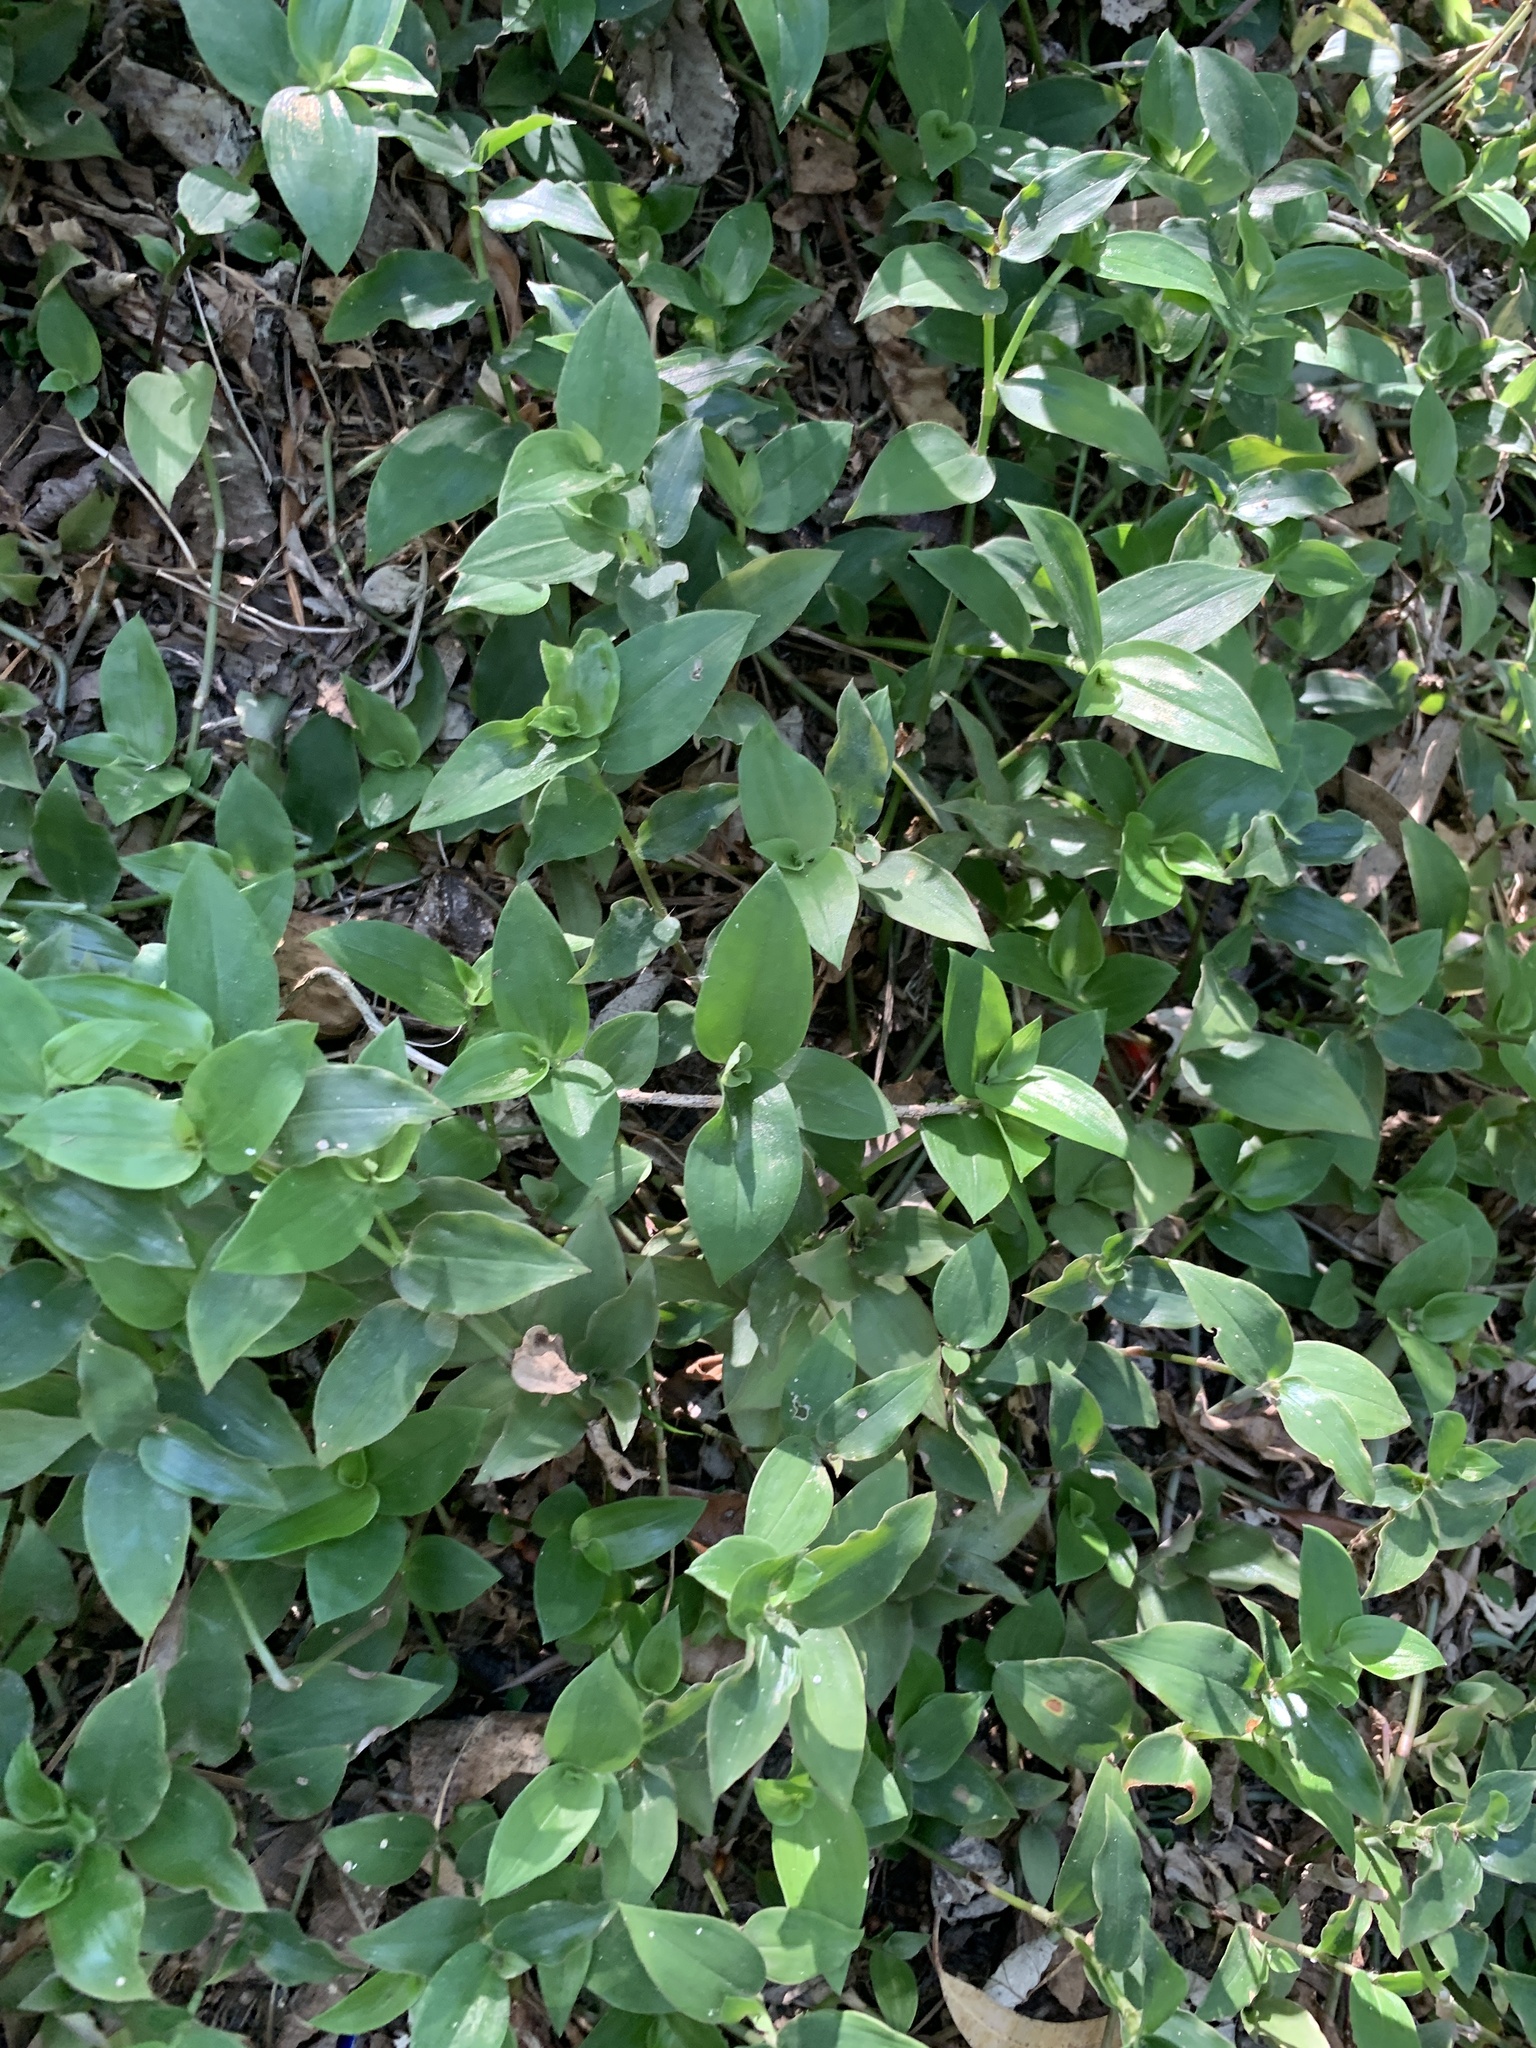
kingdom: Plantae
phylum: Tracheophyta
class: Liliopsida
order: Commelinales
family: Commelinaceae
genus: Tradescantia
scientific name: Tradescantia fluminensis
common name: Wandering-jew
